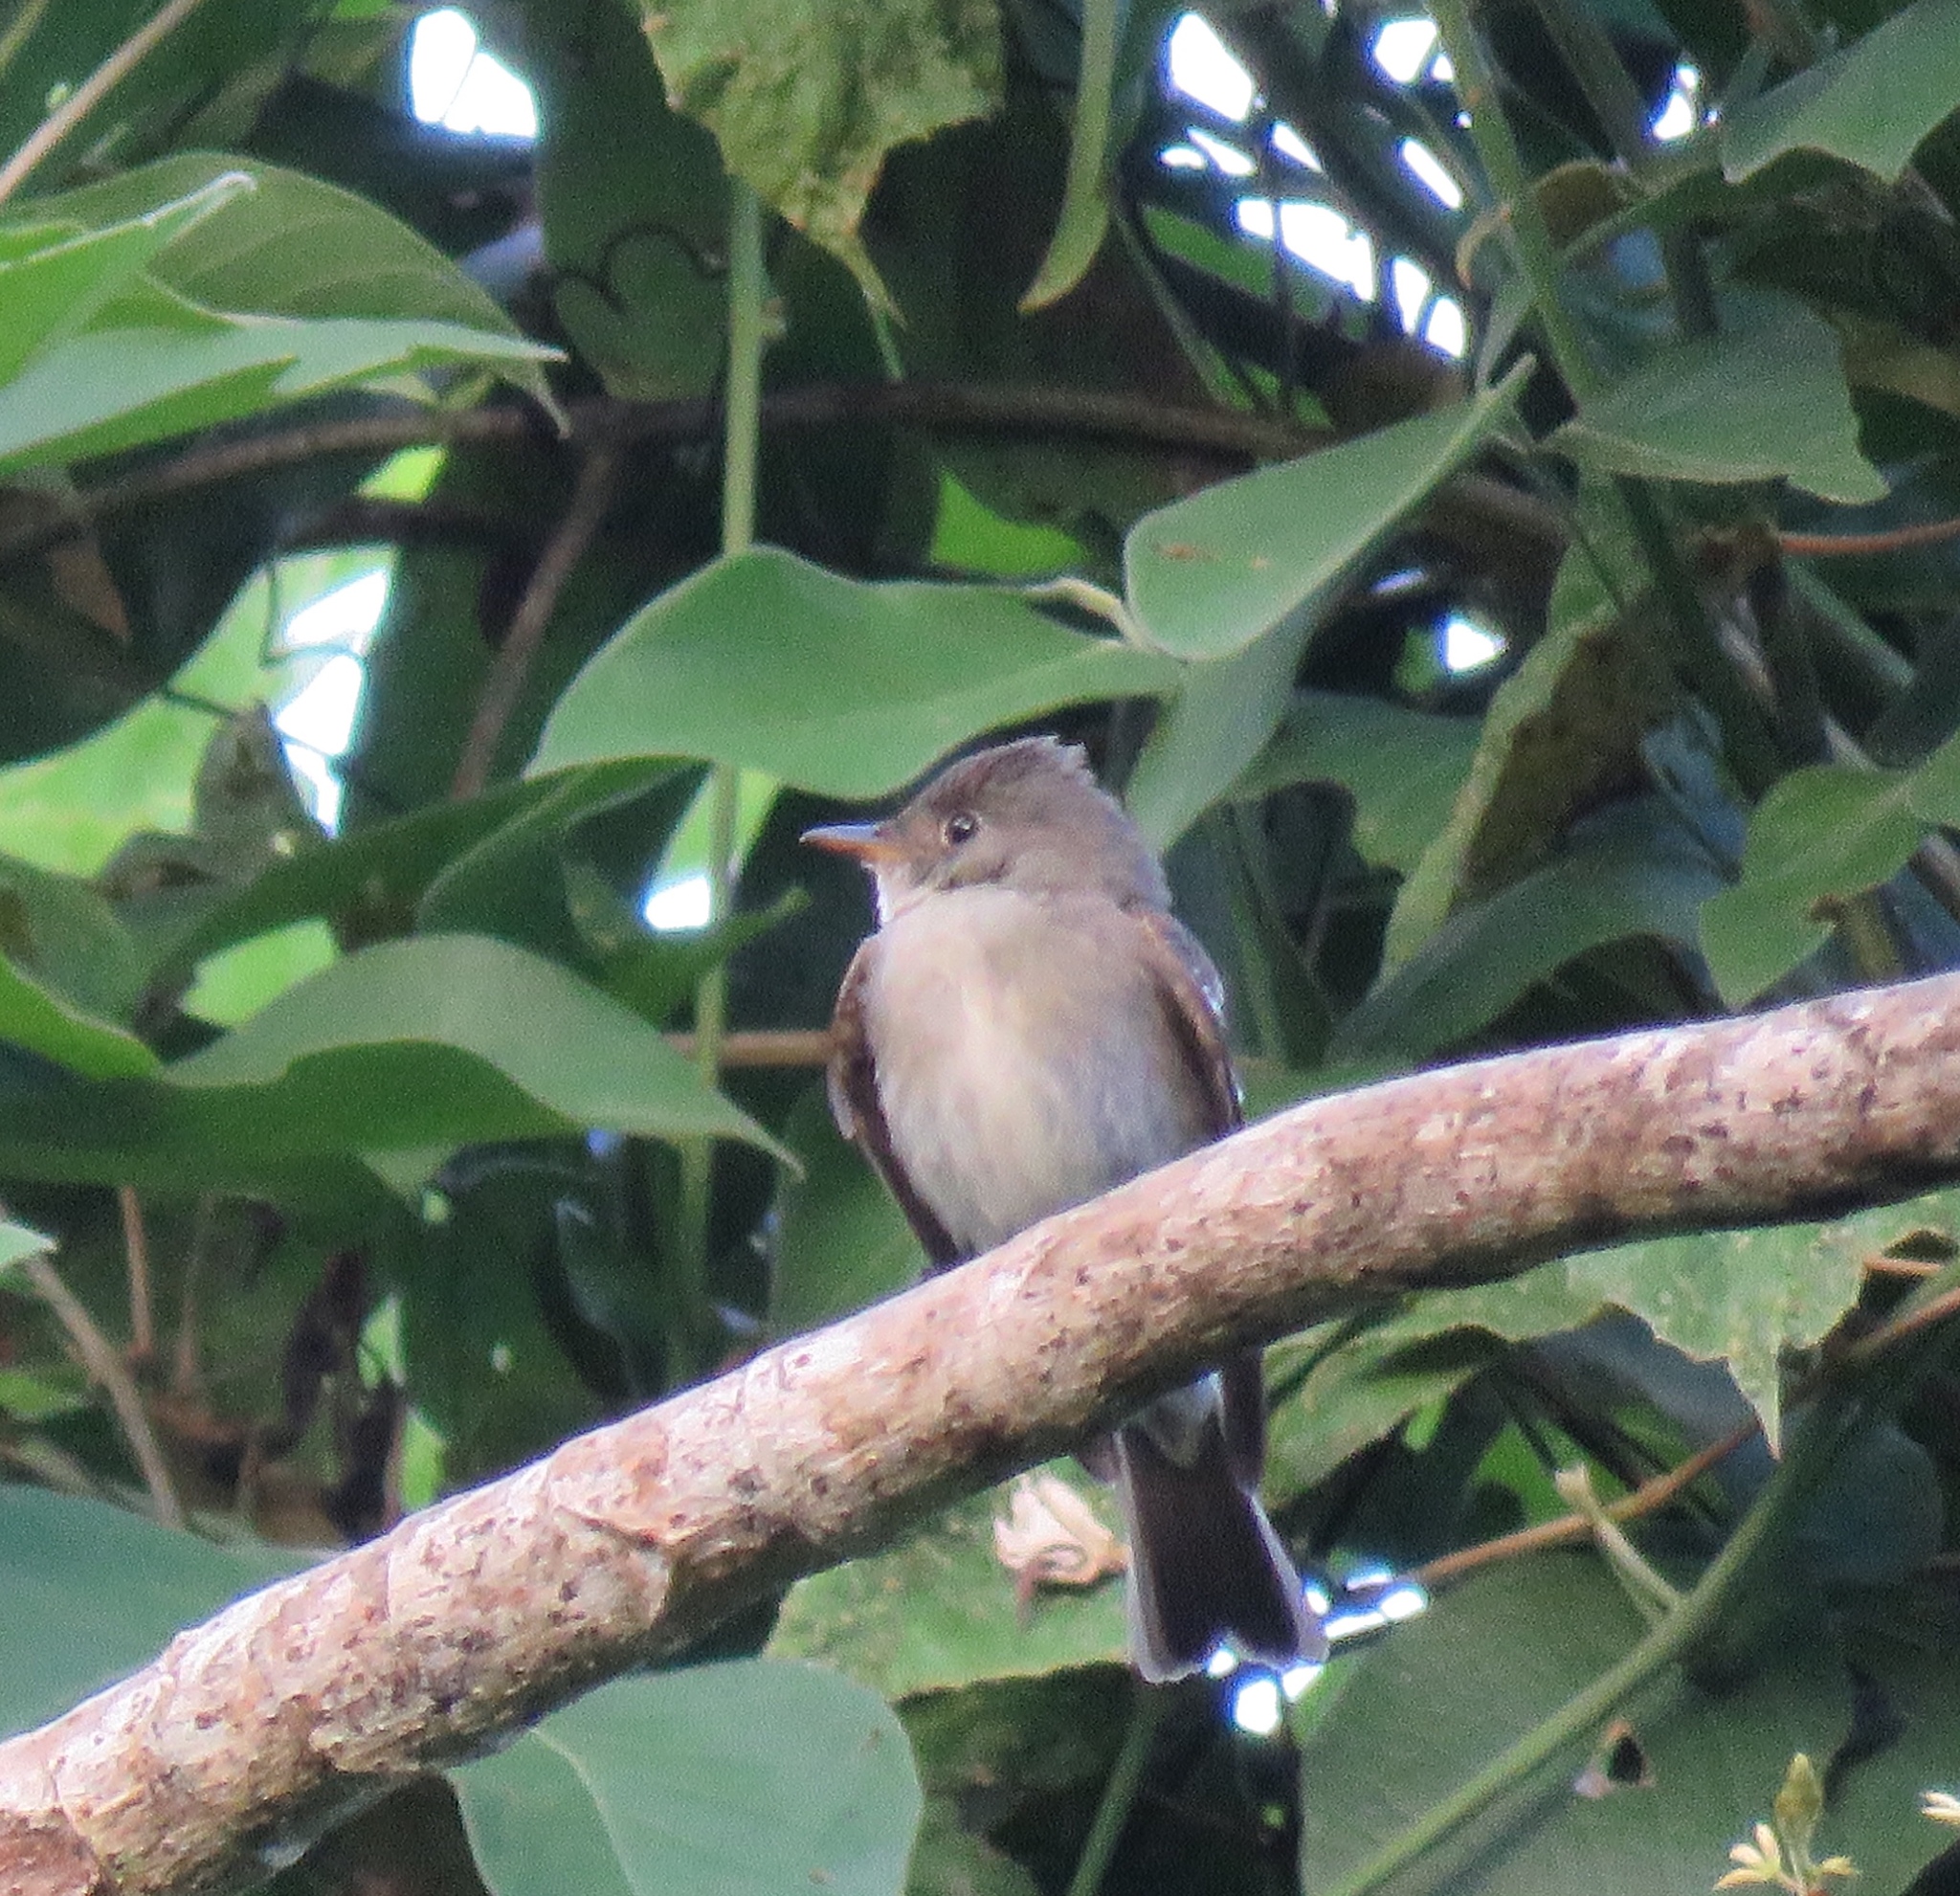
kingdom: Animalia
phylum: Chordata
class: Aves
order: Passeriformes
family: Tyrannidae
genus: Contopus
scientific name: Contopus virens
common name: Eastern wood-pewee
